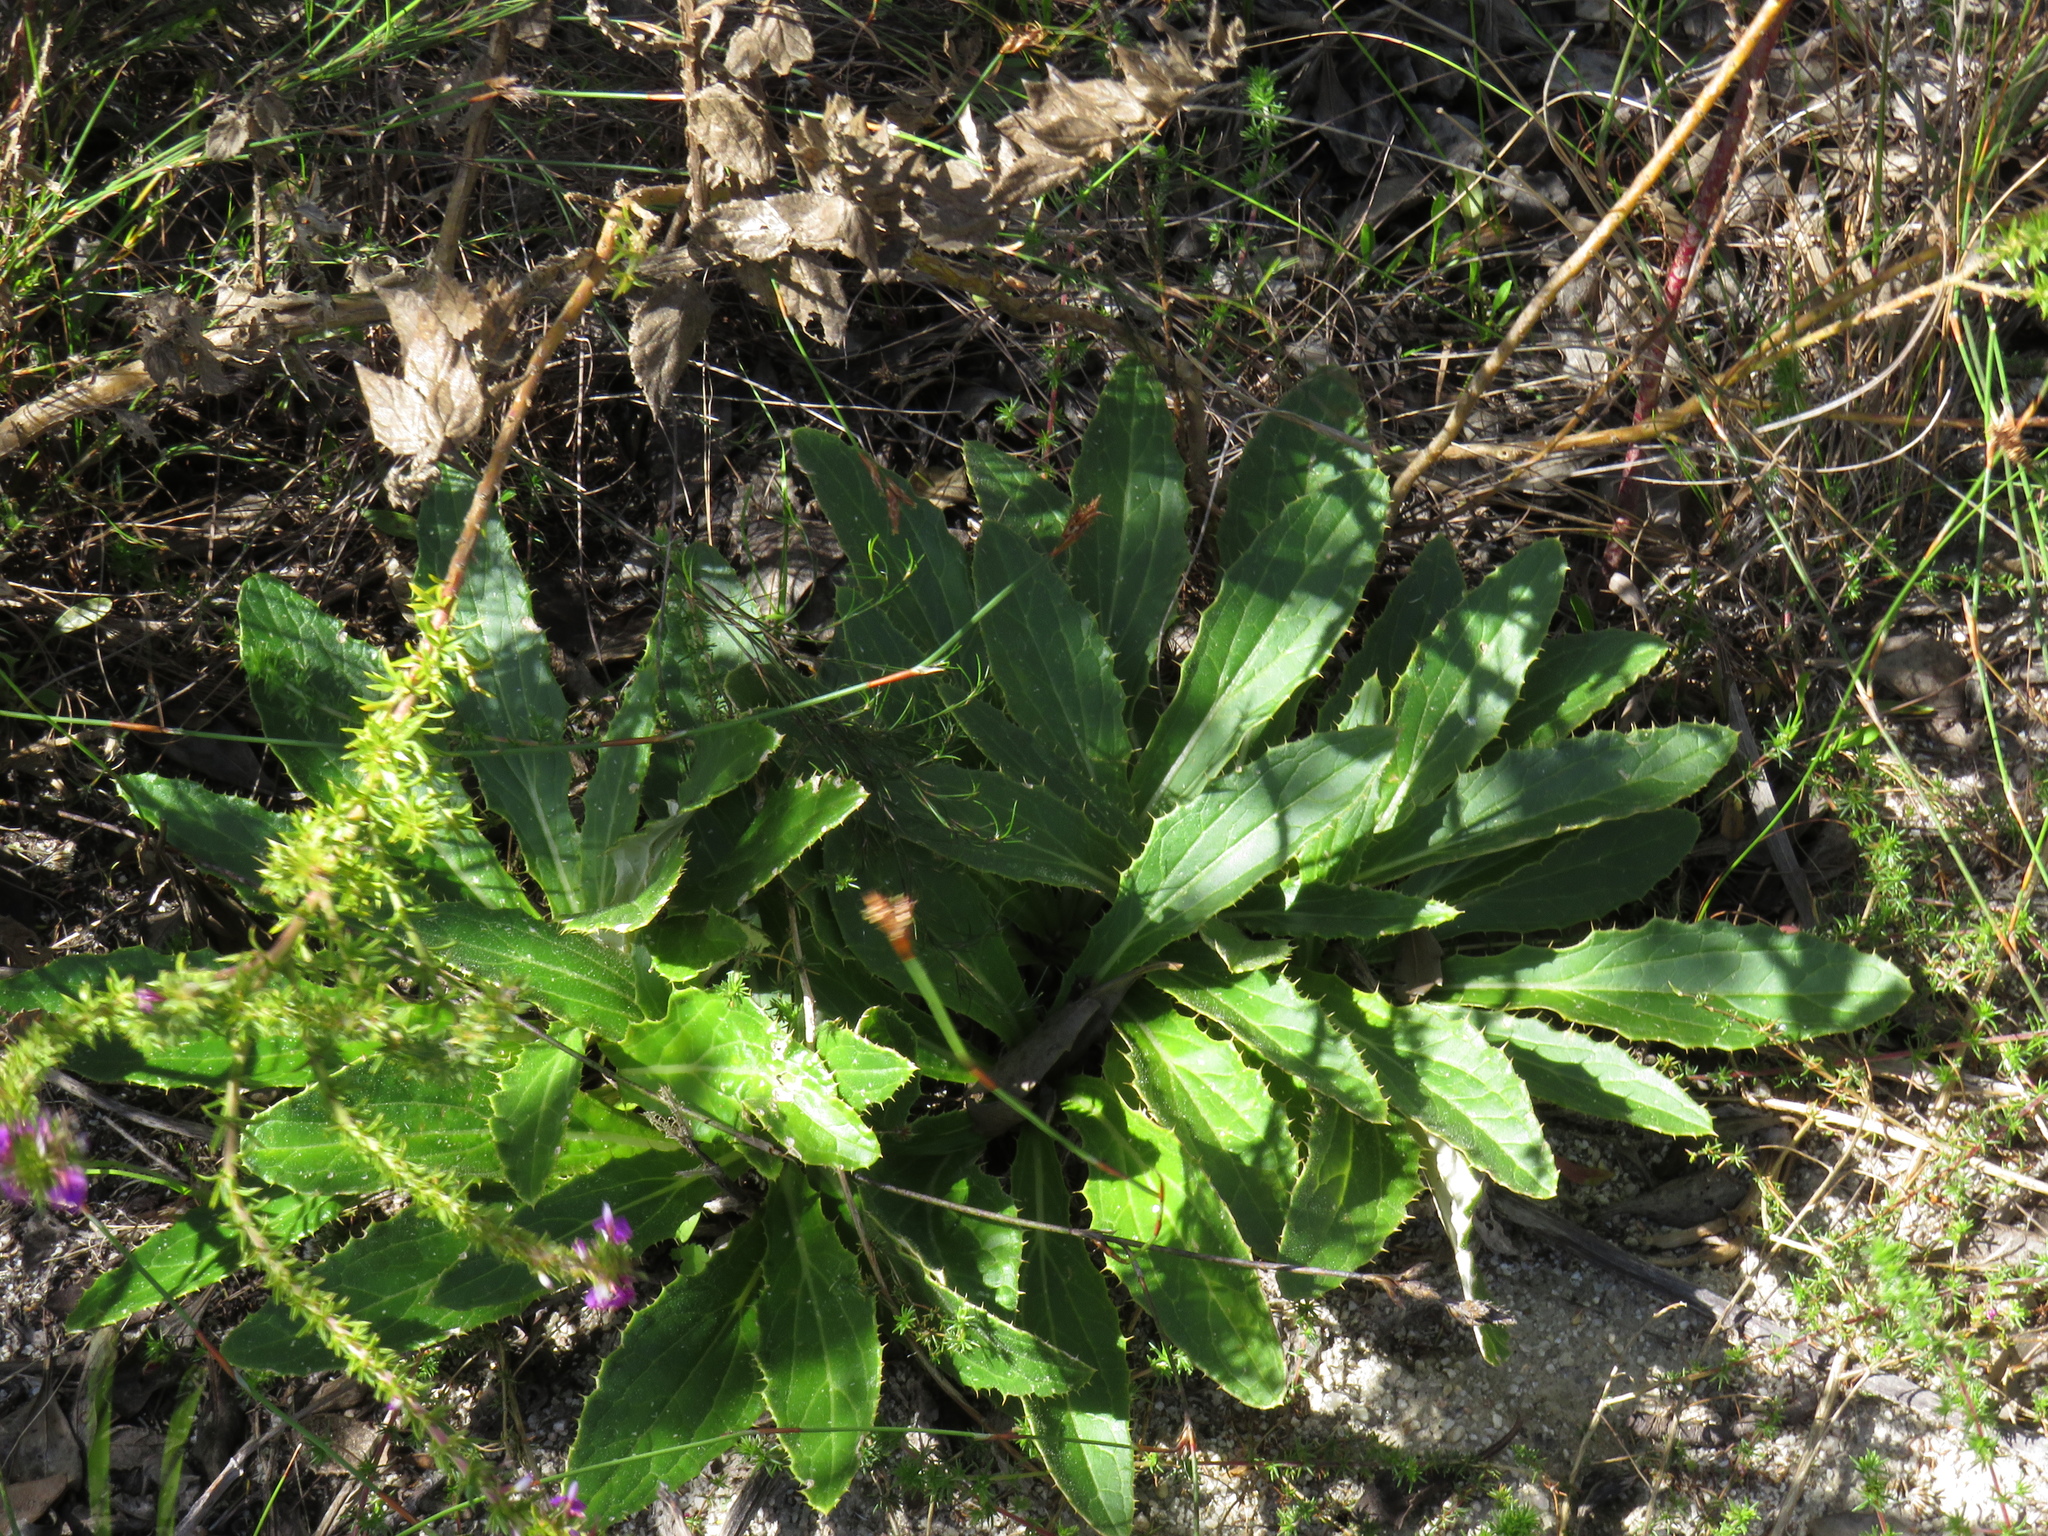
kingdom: Plantae
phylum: Tracheophyta
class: Magnoliopsida
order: Asterales
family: Asteraceae
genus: Berkheya
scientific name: Berkheya armata
